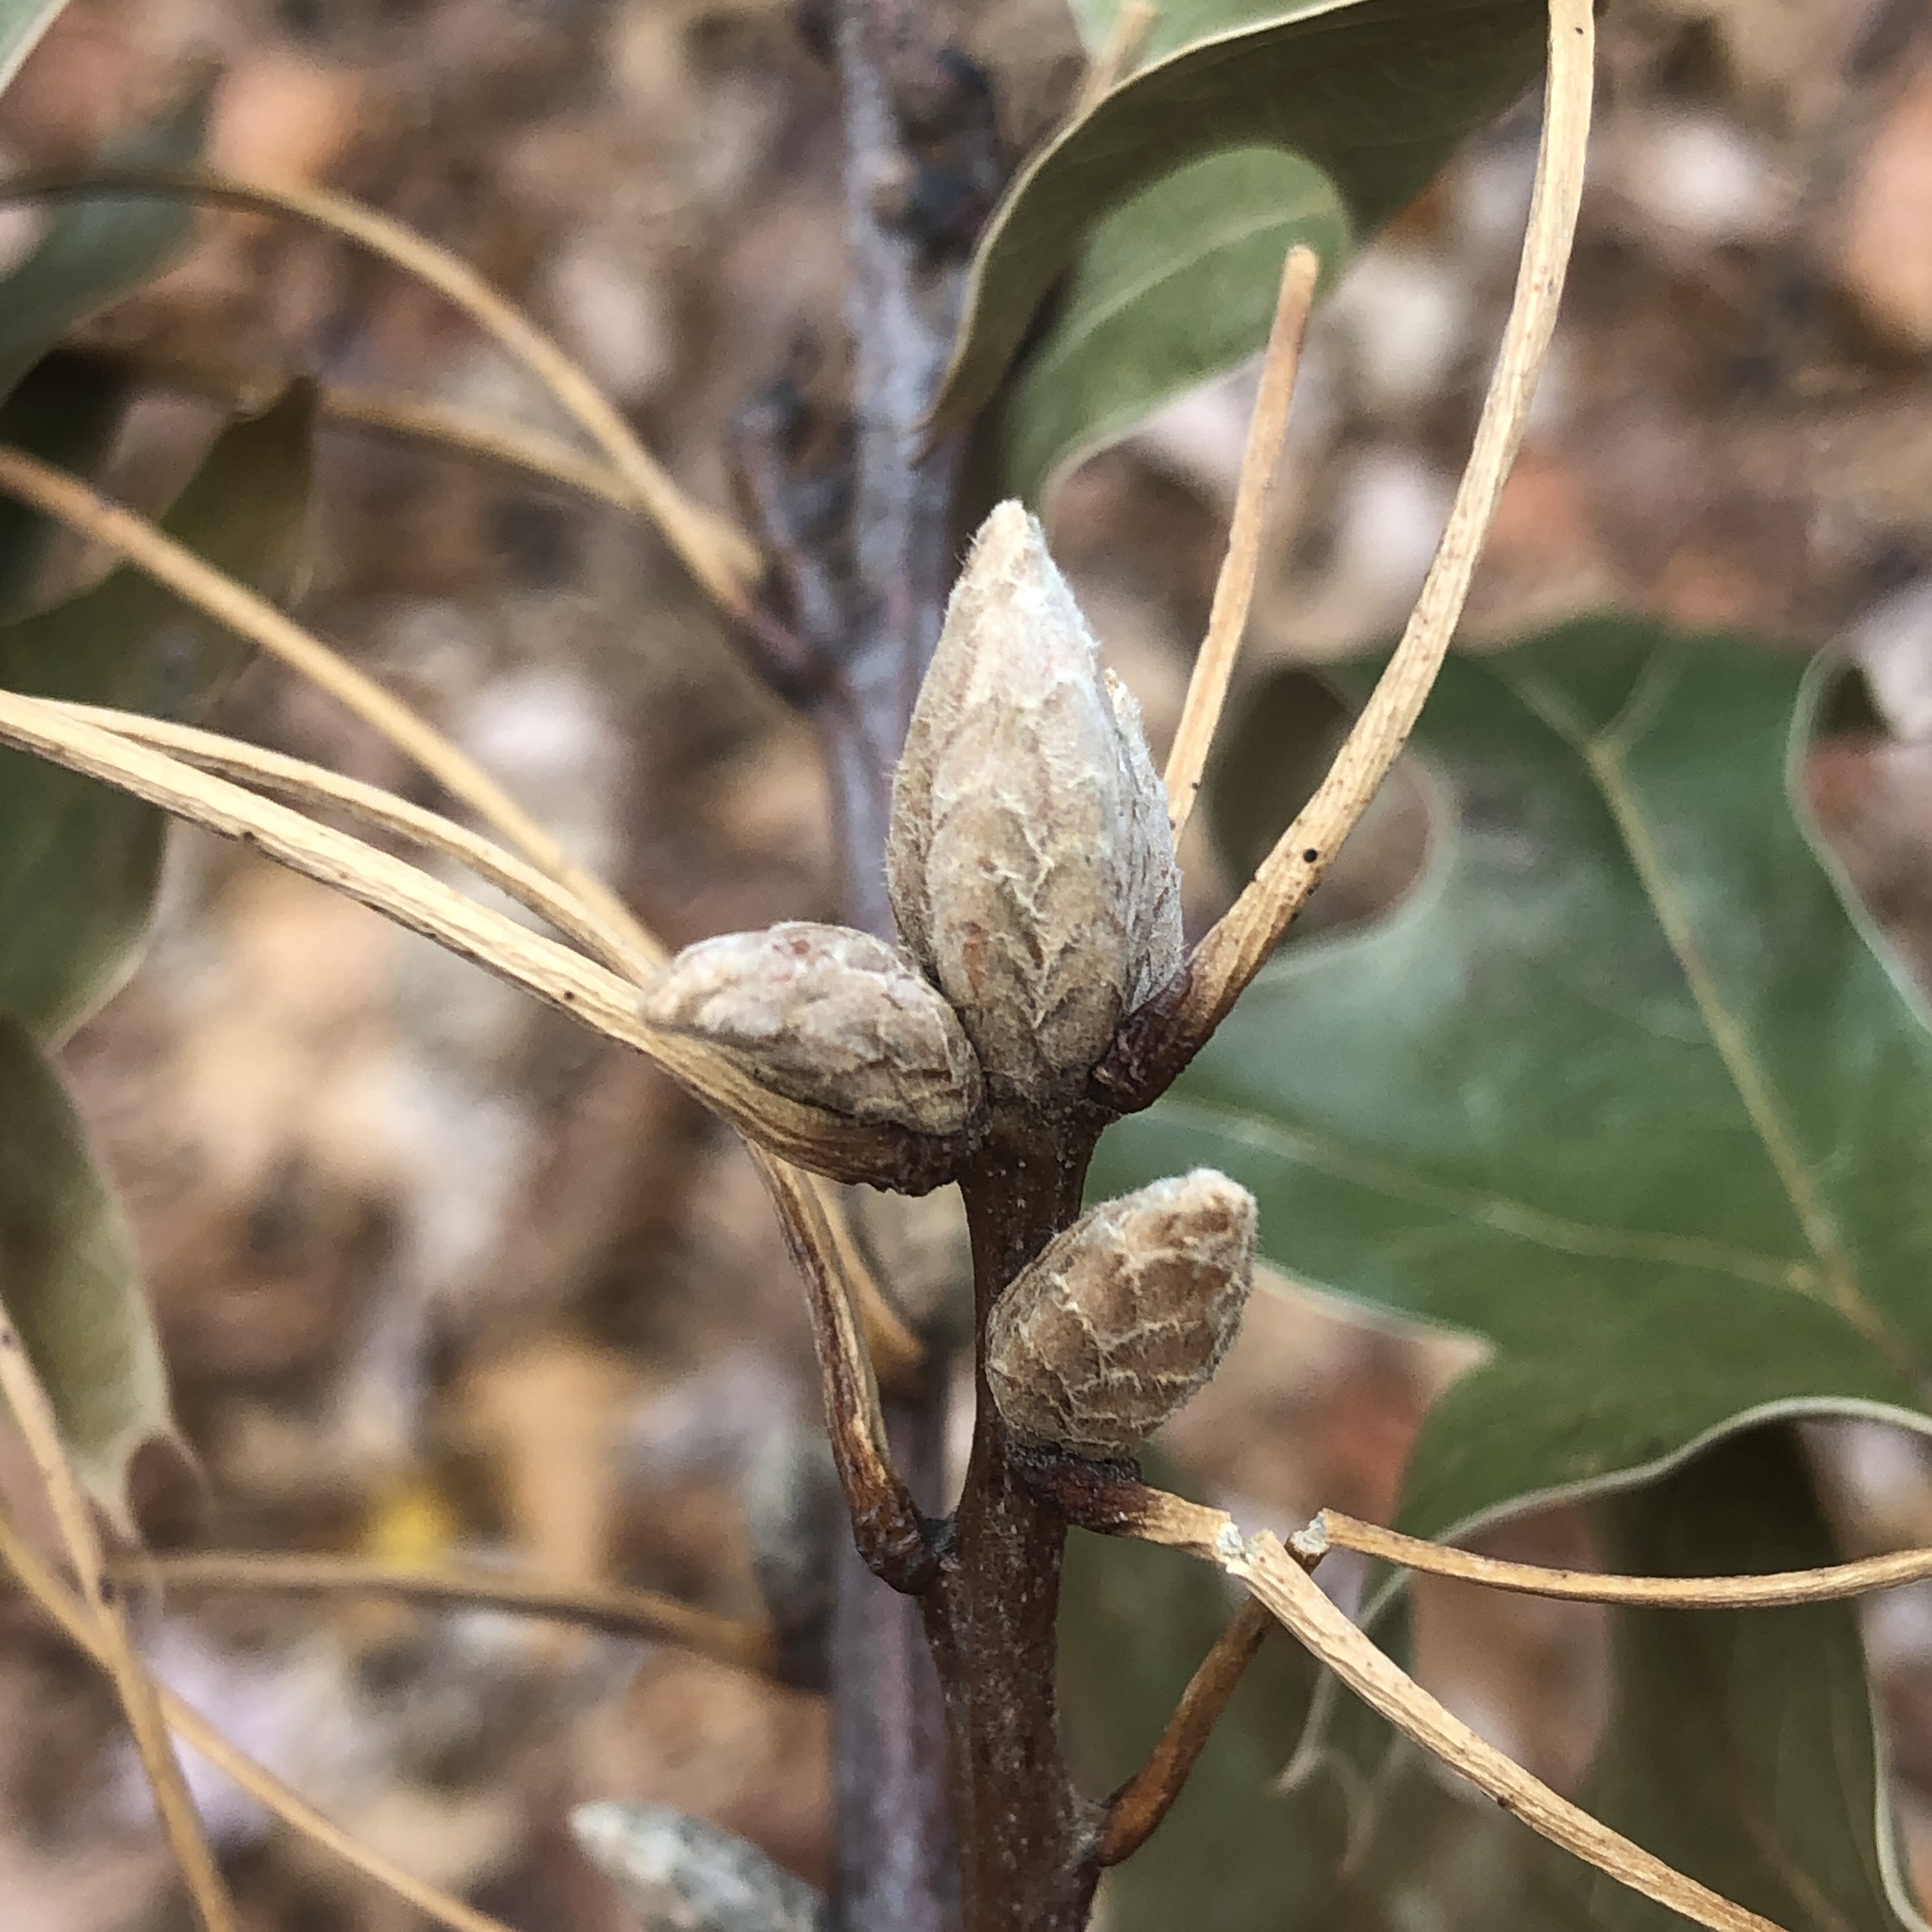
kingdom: Plantae
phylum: Tracheophyta
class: Magnoliopsida
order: Fagales
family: Fagaceae
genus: Quercus
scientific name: Quercus velutina
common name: Black oak
